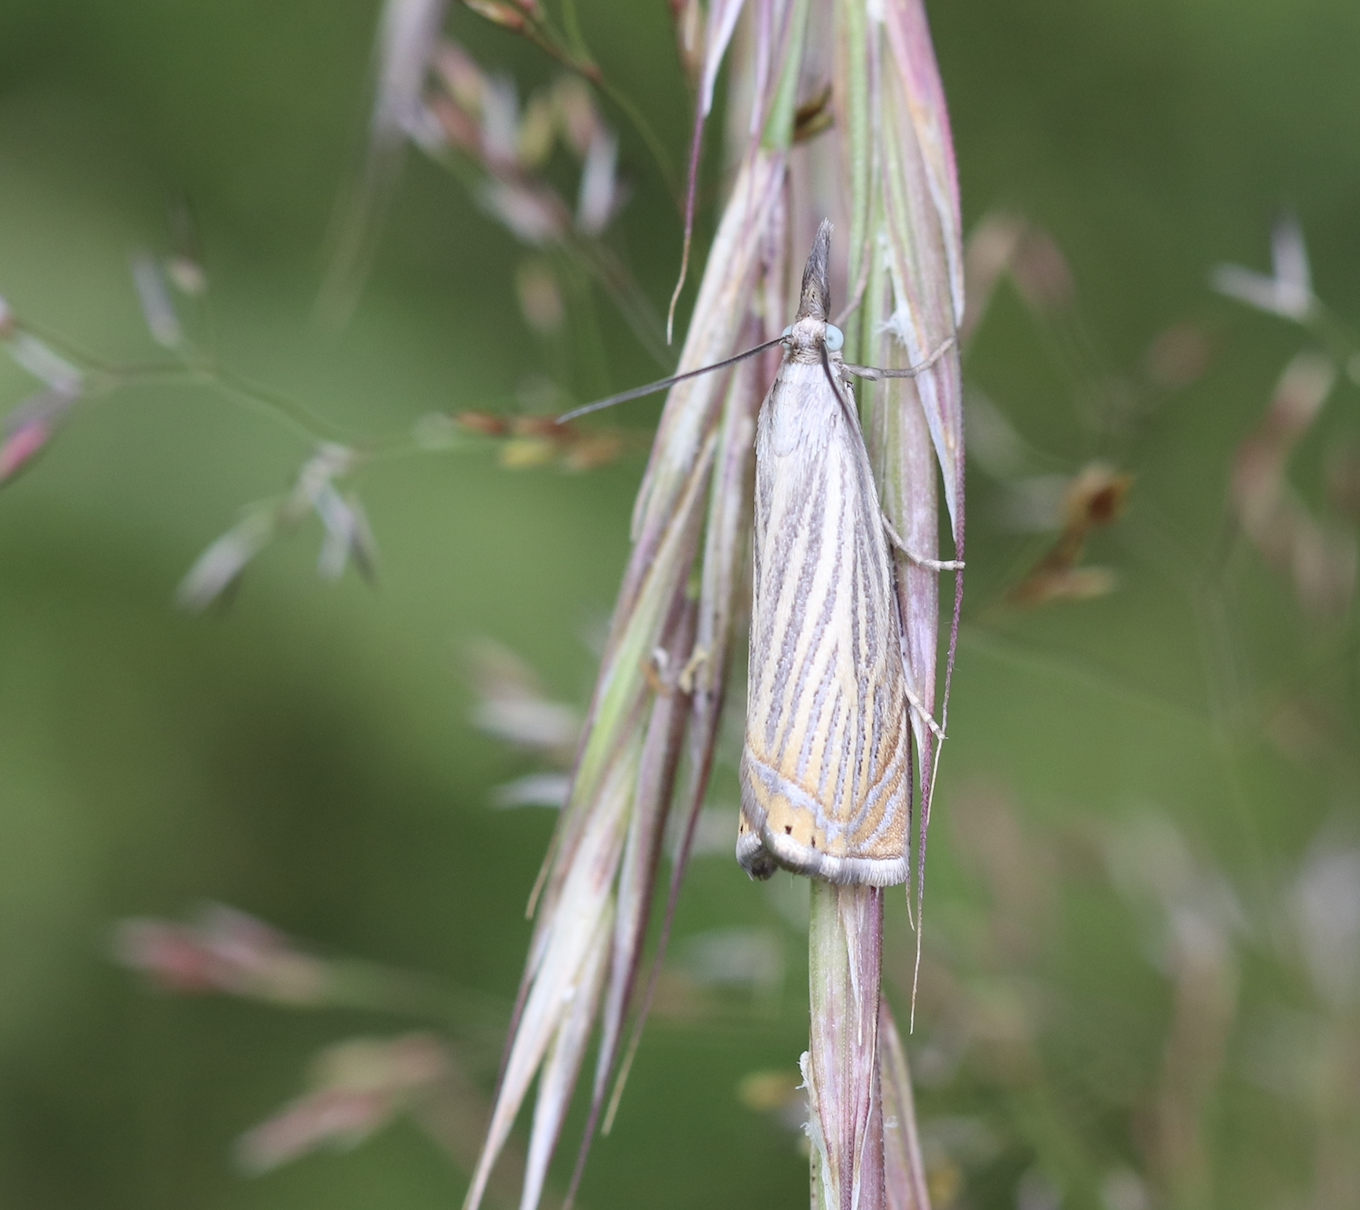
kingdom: Animalia
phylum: Arthropoda
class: Insecta
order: Lepidoptera
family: Crambidae
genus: Chrysoteuchia
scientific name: Chrysoteuchia culmella
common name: Garden grass-veneer
